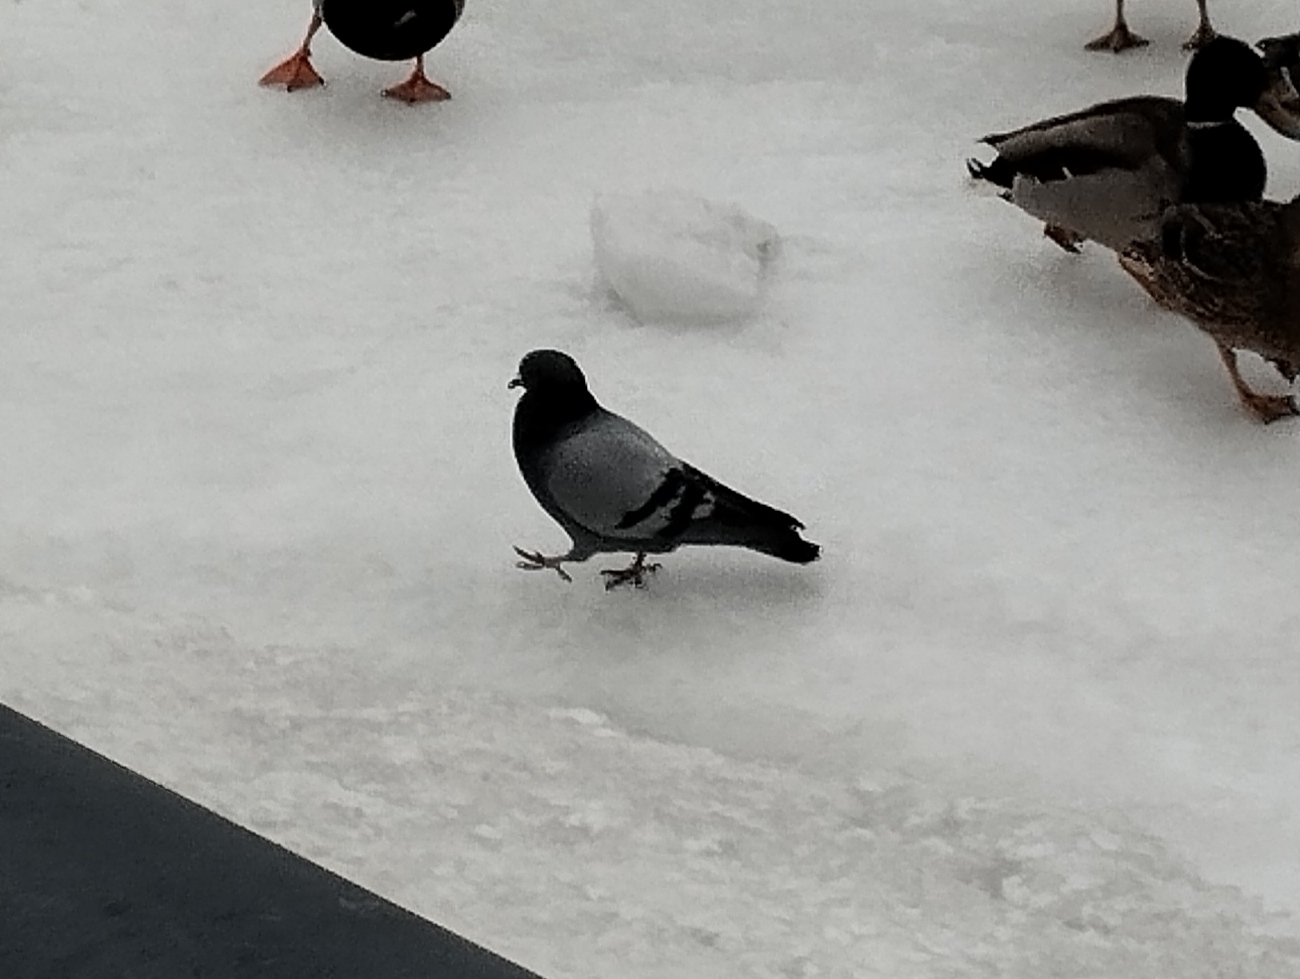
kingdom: Animalia
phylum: Chordata
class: Aves
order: Columbiformes
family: Columbidae
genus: Columba
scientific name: Columba livia
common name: Rock pigeon
